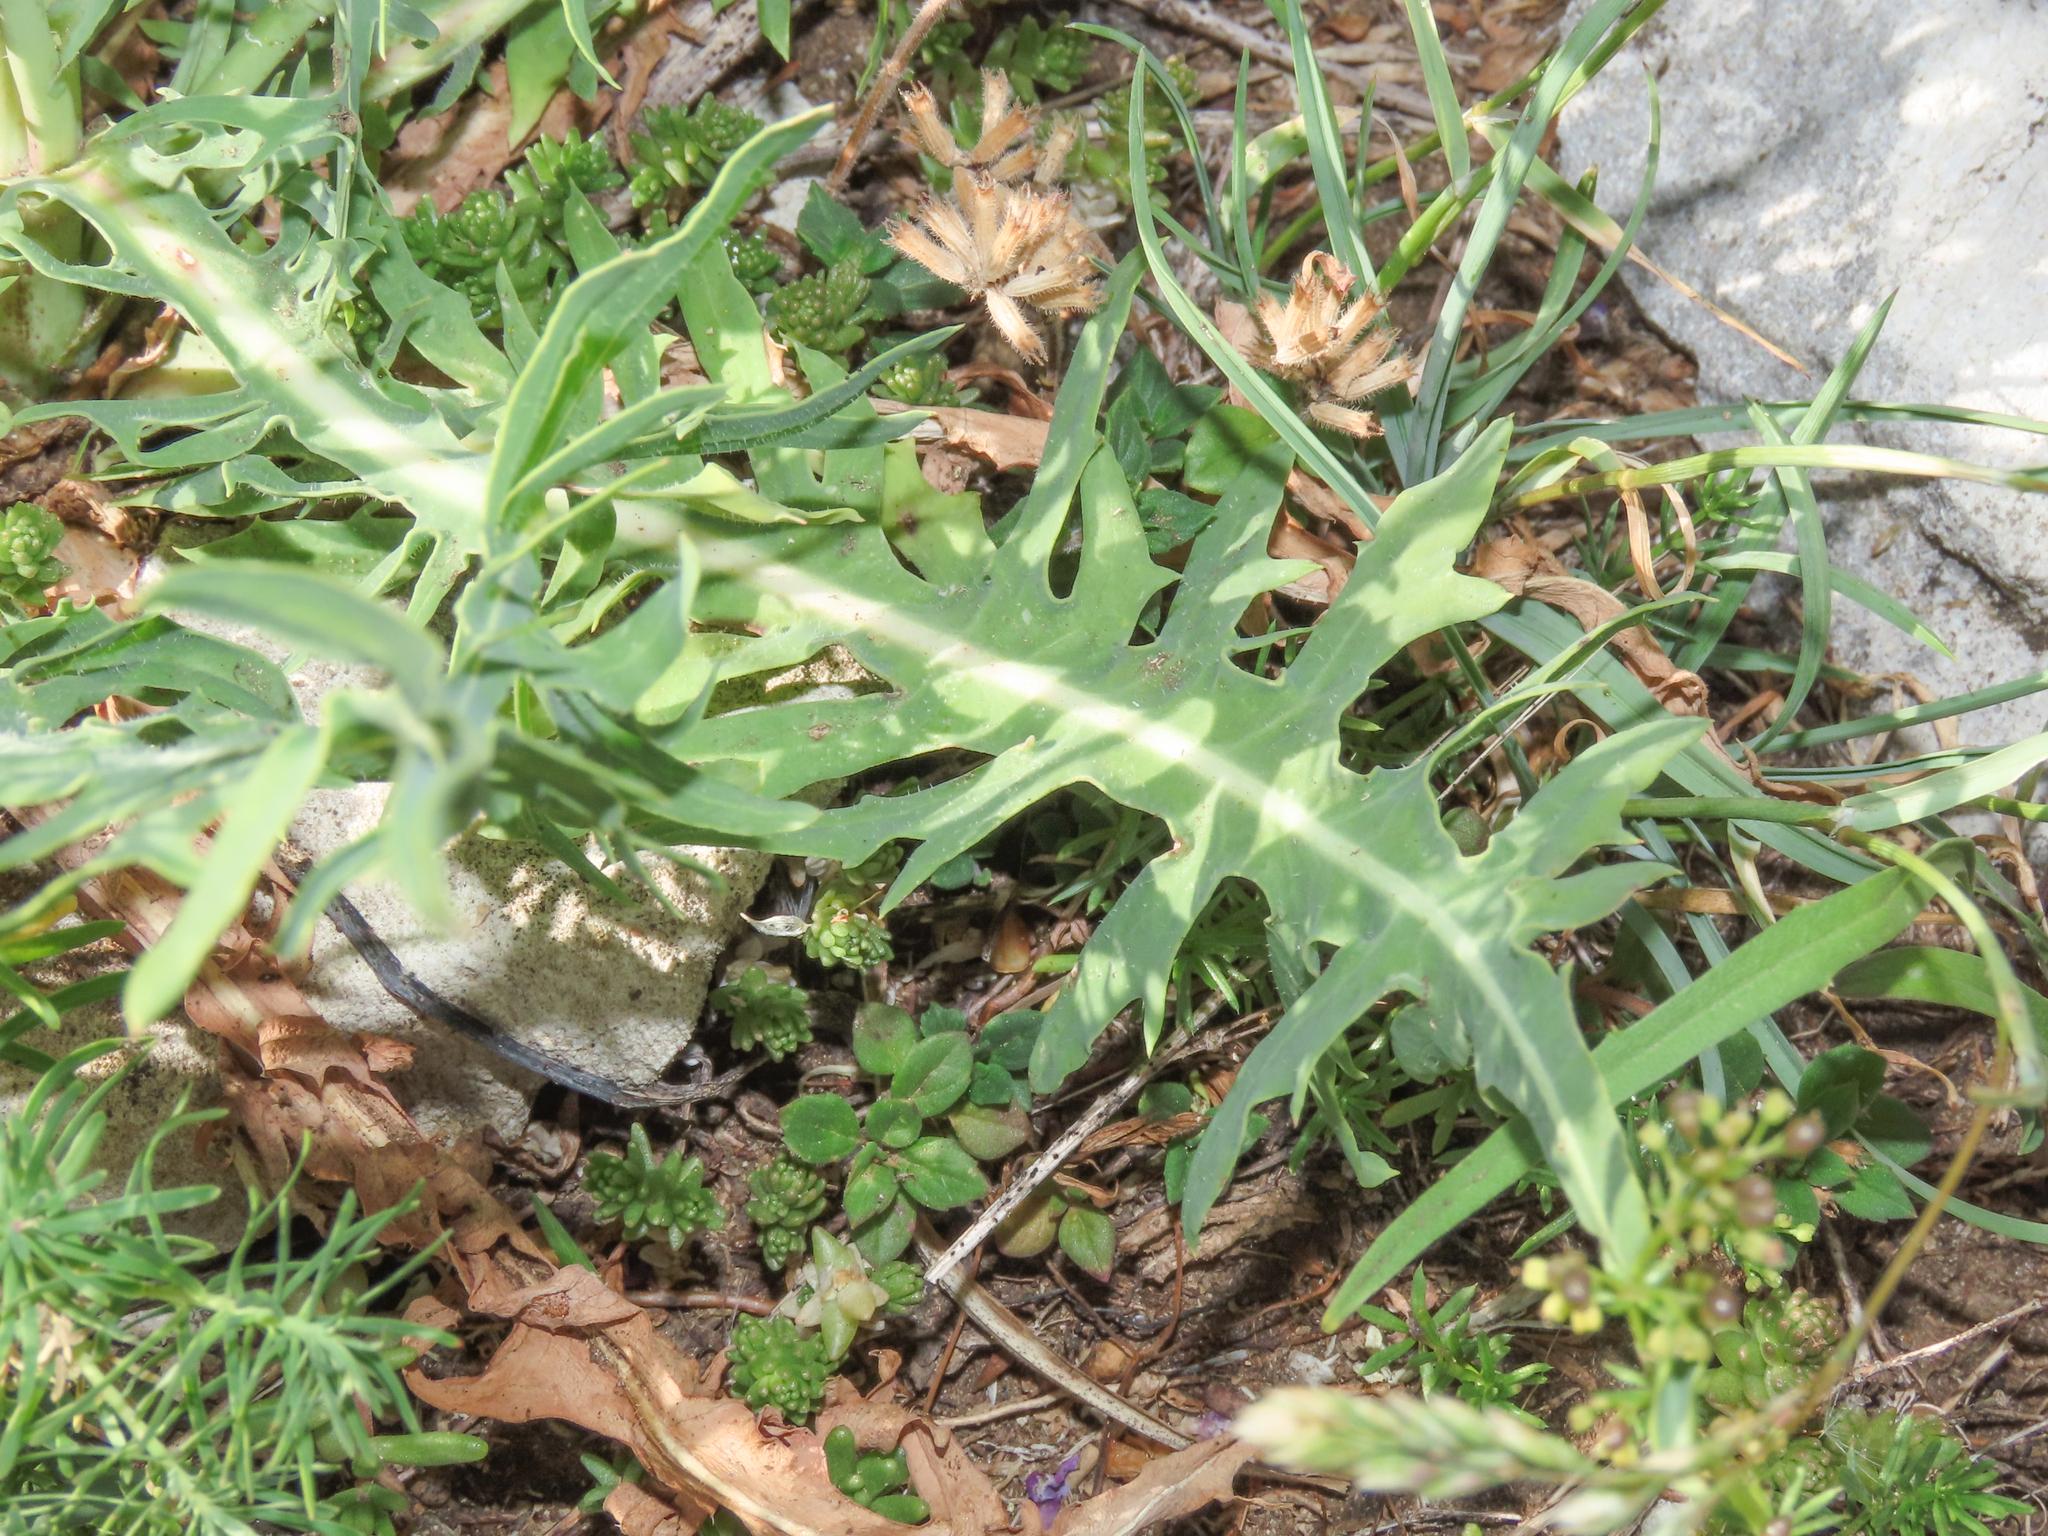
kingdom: Plantae
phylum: Tracheophyta
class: Magnoliopsida
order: Asterales
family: Asteraceae
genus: Lactuca
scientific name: Lactuca perennis
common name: Mountain lettuce
